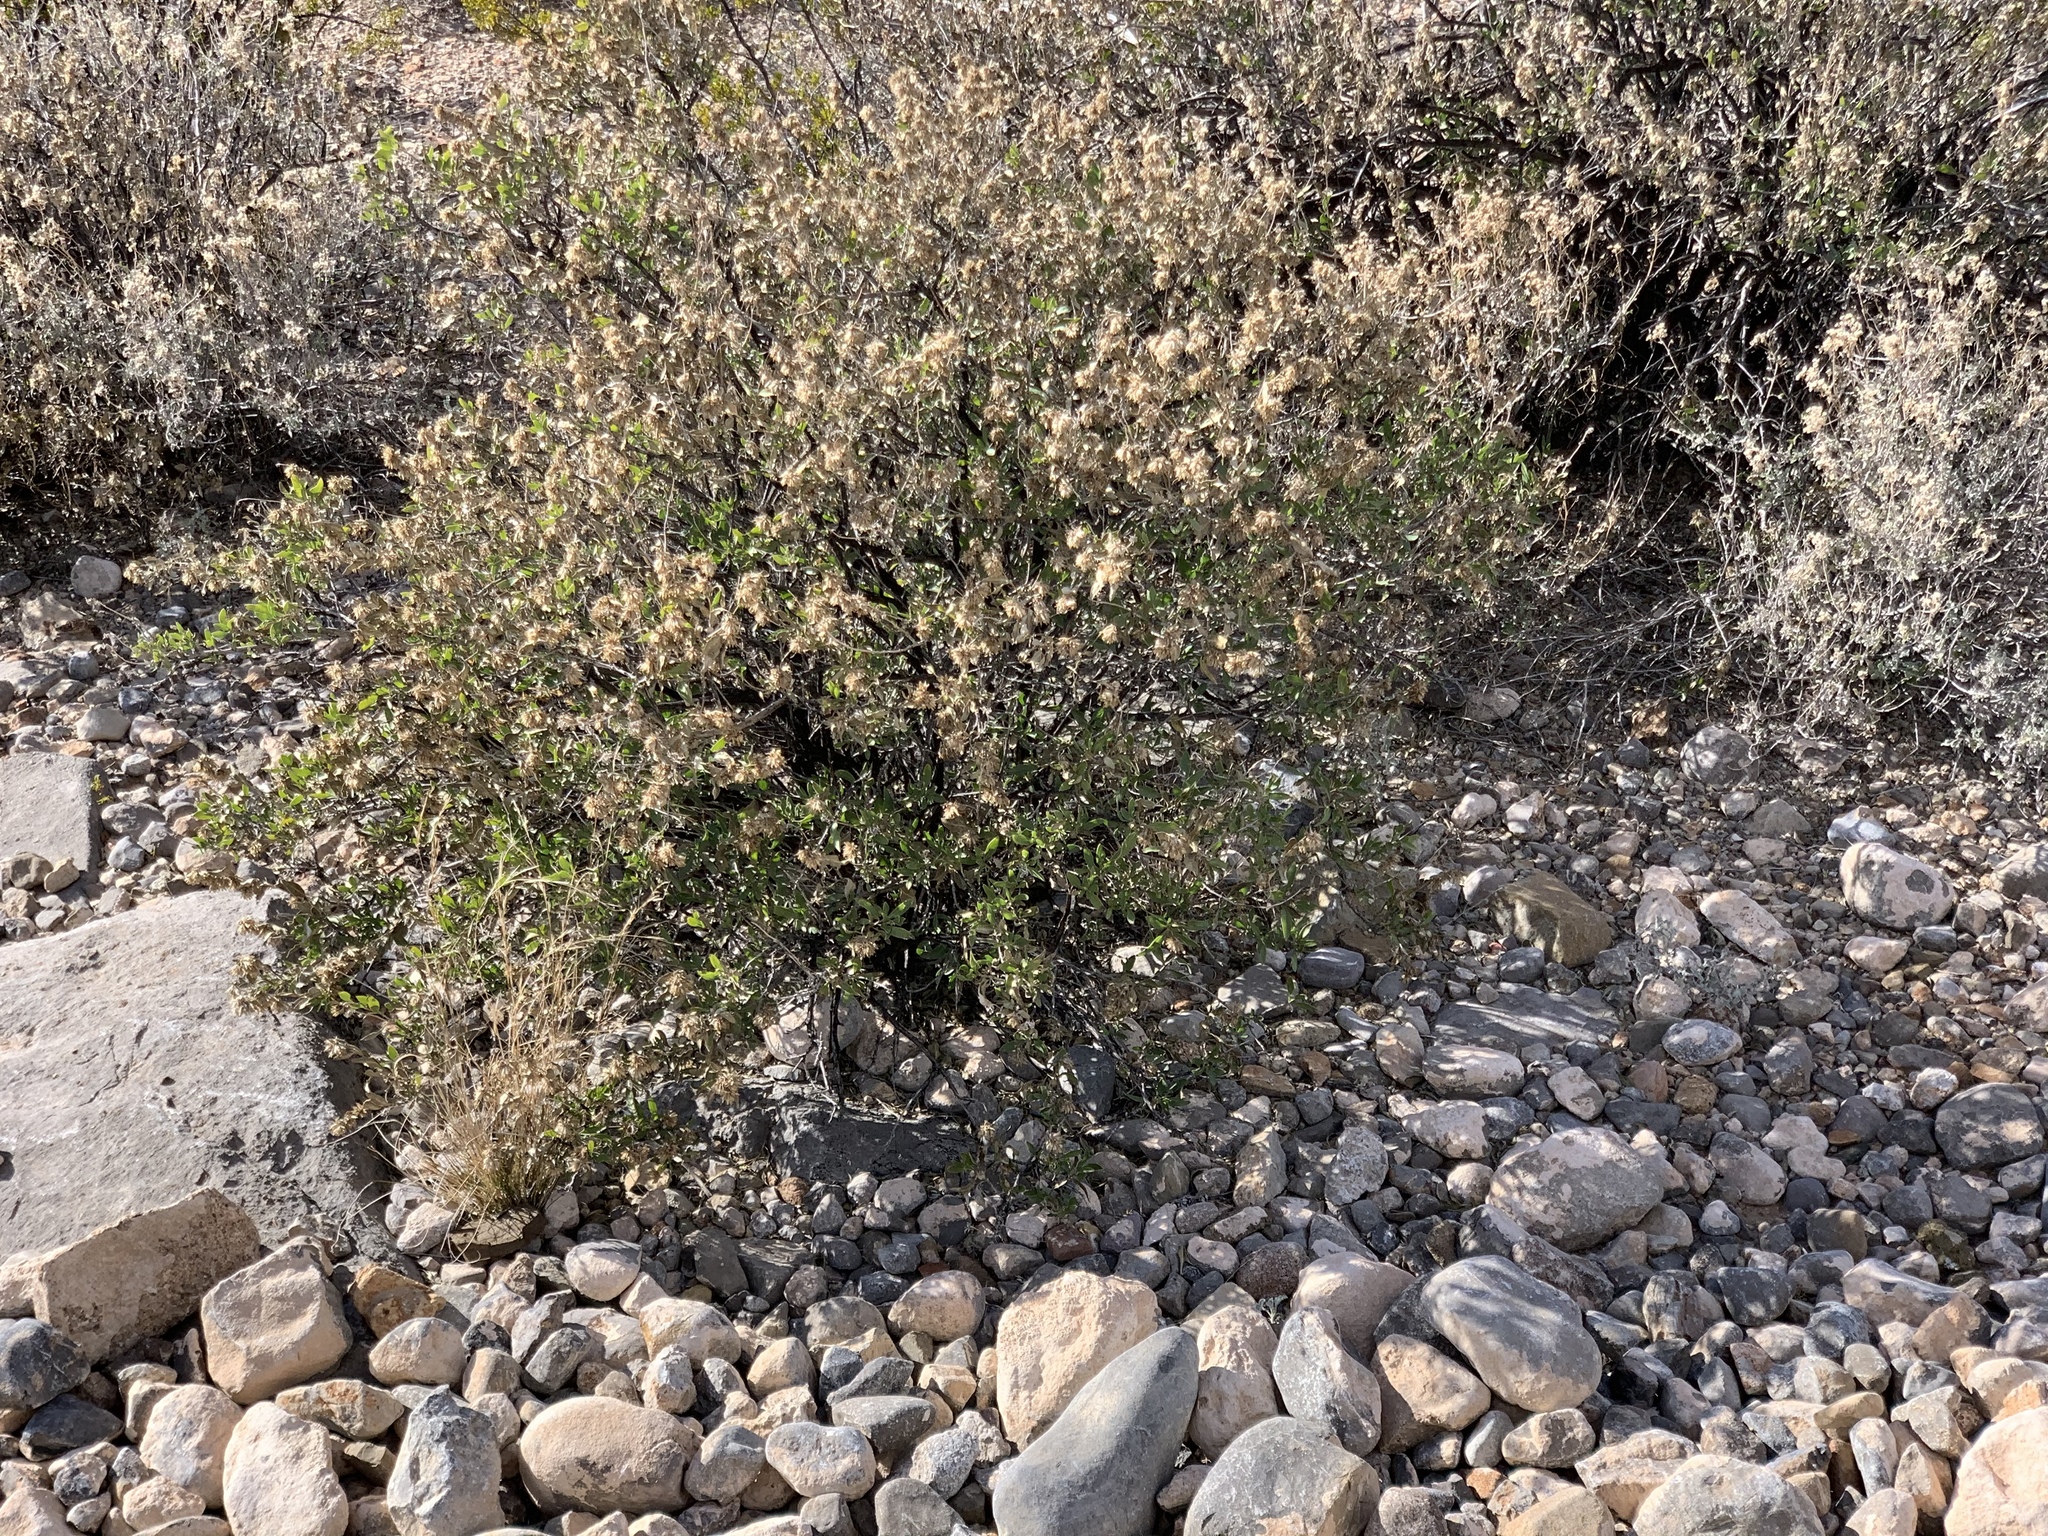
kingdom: Plantae
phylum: Tracheophyta
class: Magnoliopsida
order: Asterales
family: Asteraceae
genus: Flourensia
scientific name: Flourensia cernua
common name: Varnishbush
